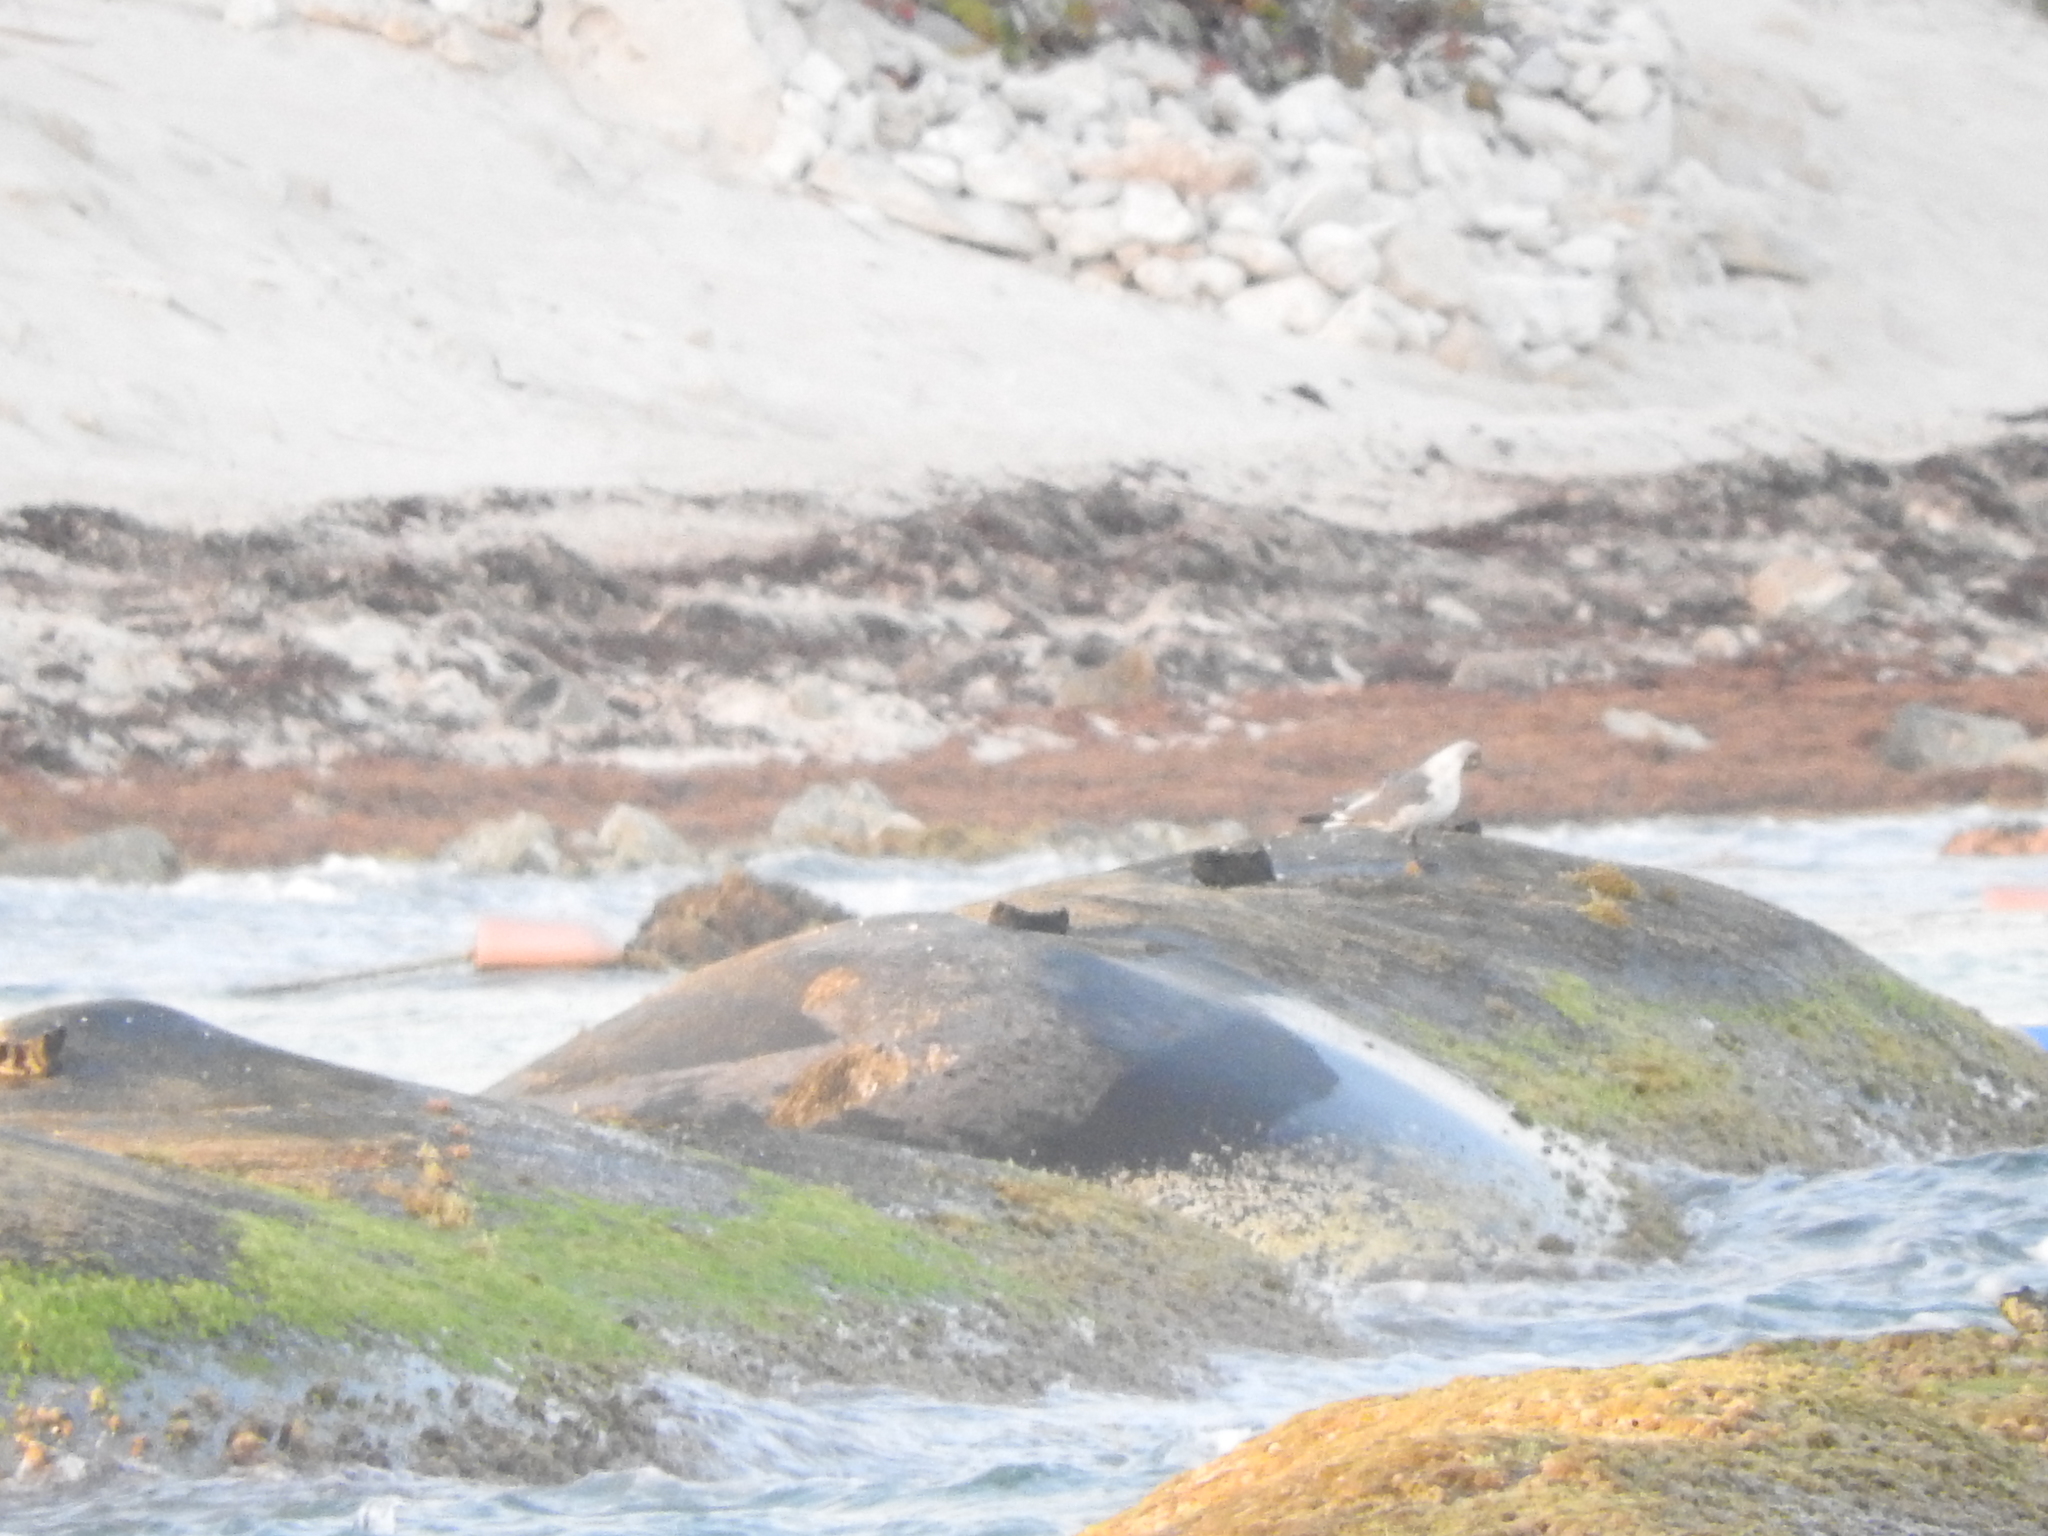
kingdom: Animalia
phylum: Chordata
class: Aves
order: Charadriiformes
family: Laridae
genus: Leucophaeus
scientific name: Leucophaeus atricilla
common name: Laughing gull
